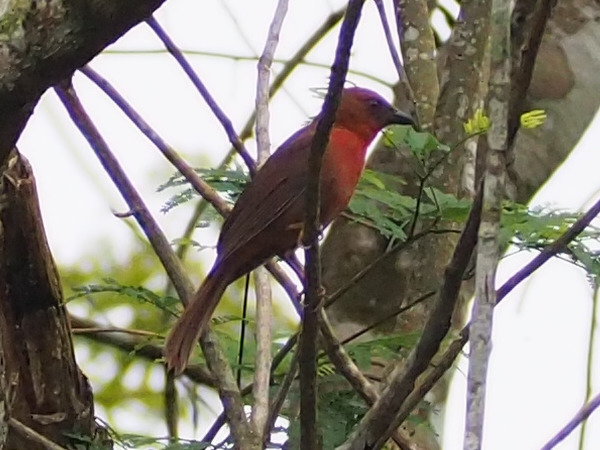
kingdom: Animalia
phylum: Chordata
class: Aves
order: Passeriformes
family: Cardinalidae
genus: Habia
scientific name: Habia fuscicauda
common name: Red-throated ant-tanager
